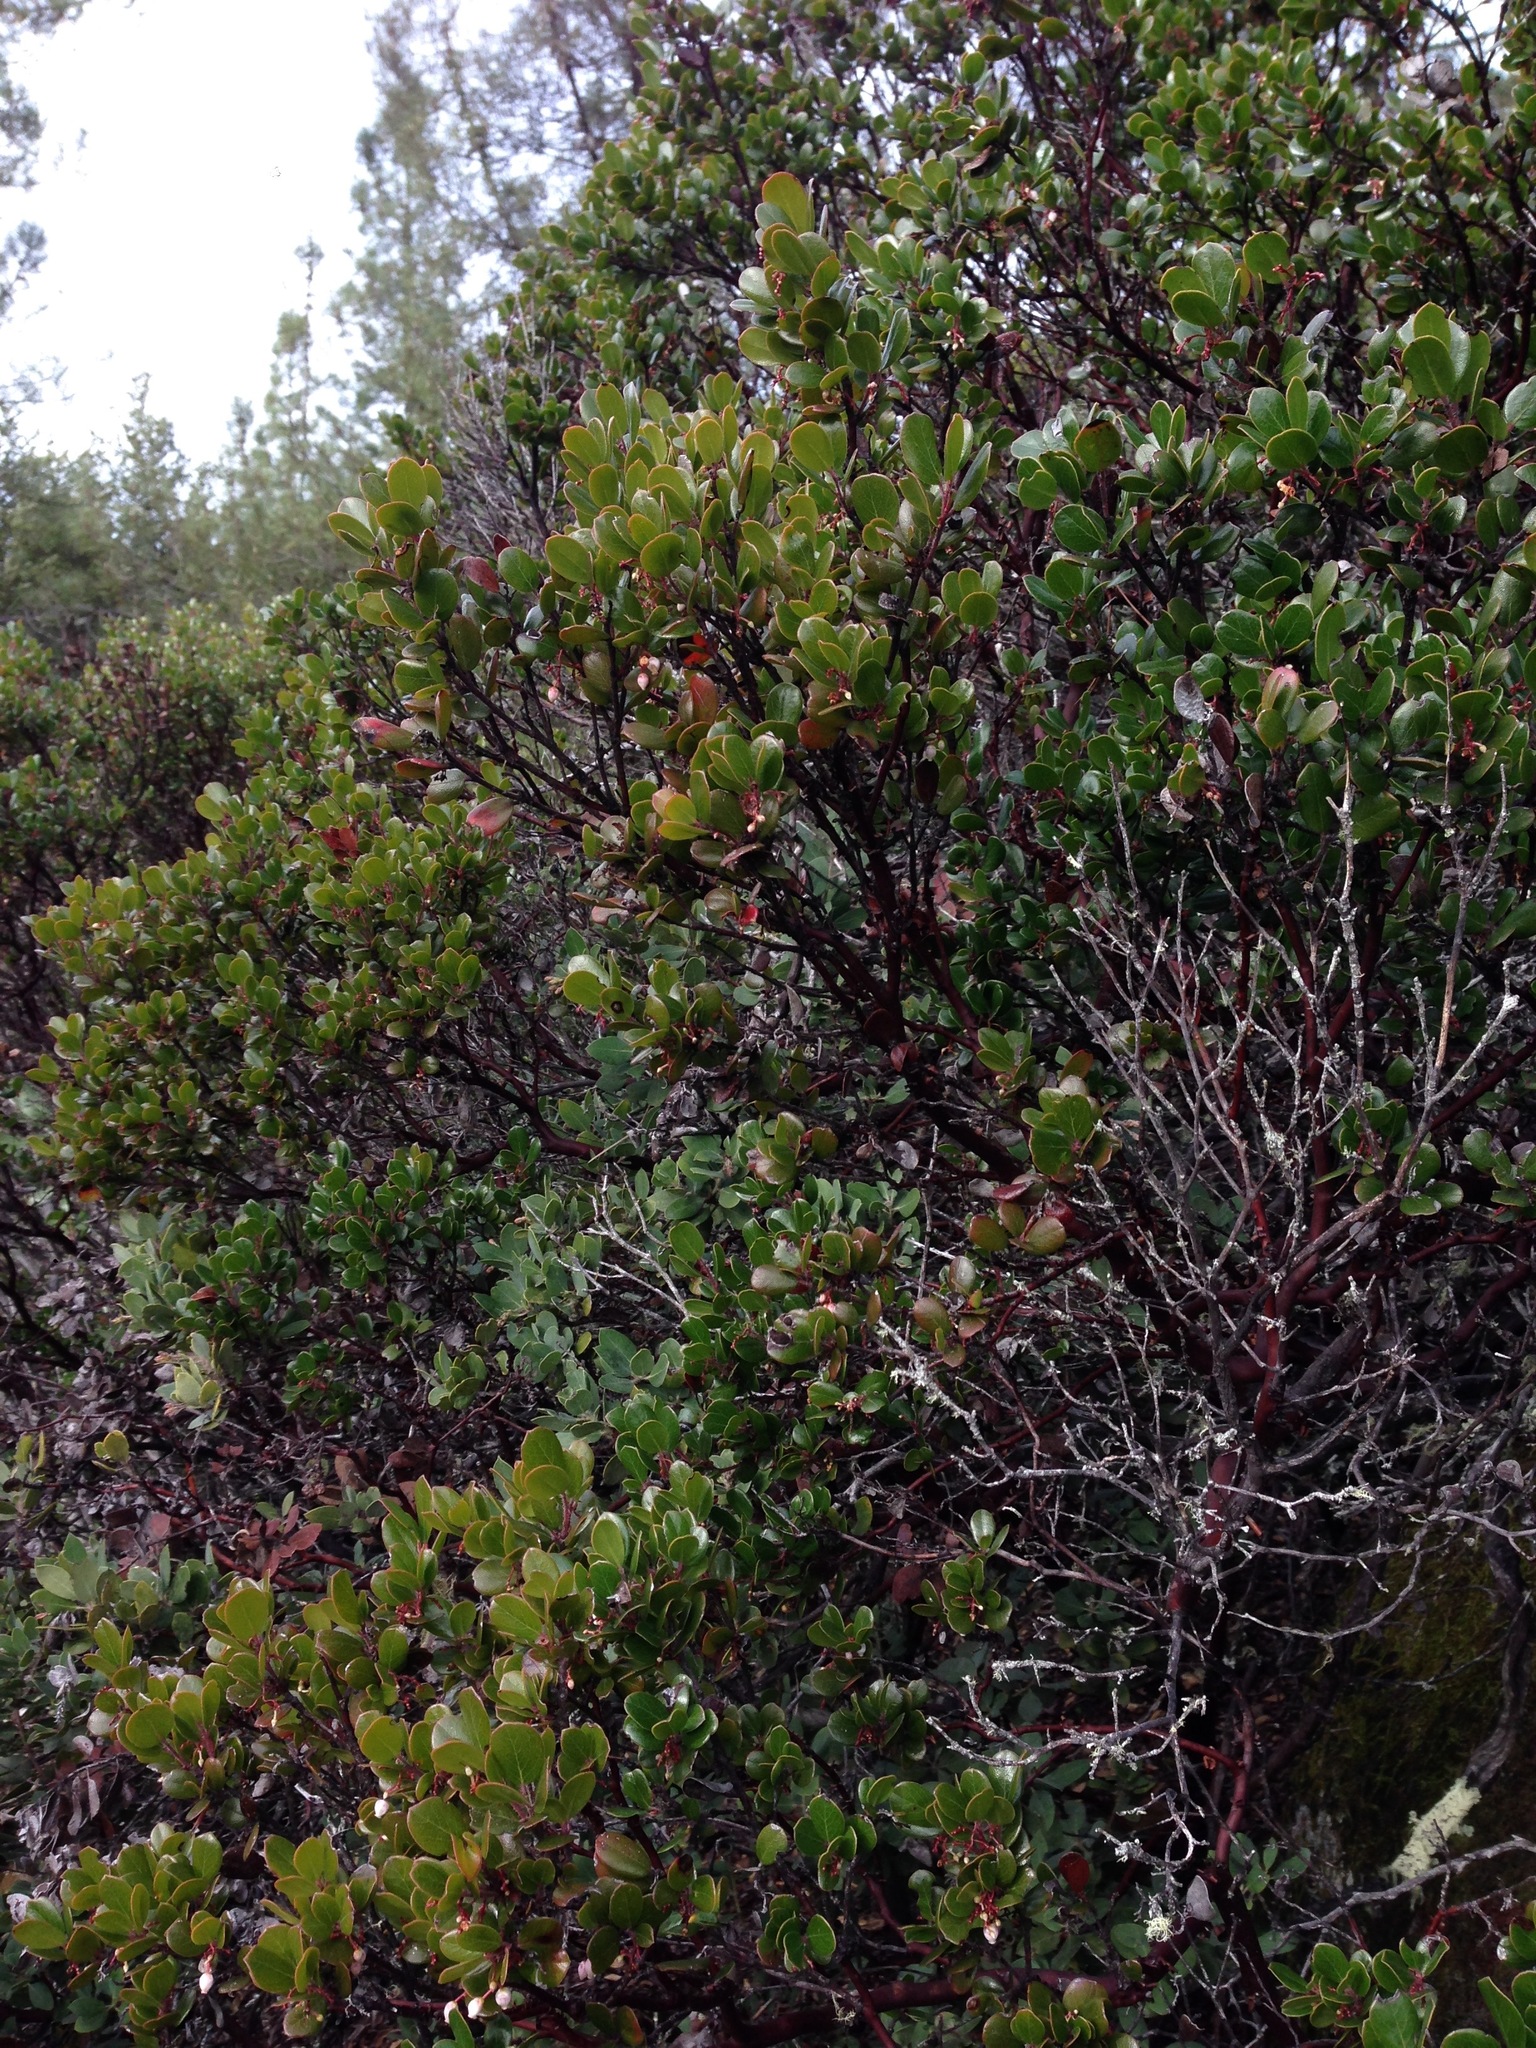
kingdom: Plantae
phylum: Tracheophyta
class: Magnoliopsida
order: Ericales
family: Ericaceae
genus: Arctostaphylos
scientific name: Arctostaphylos nummularia
